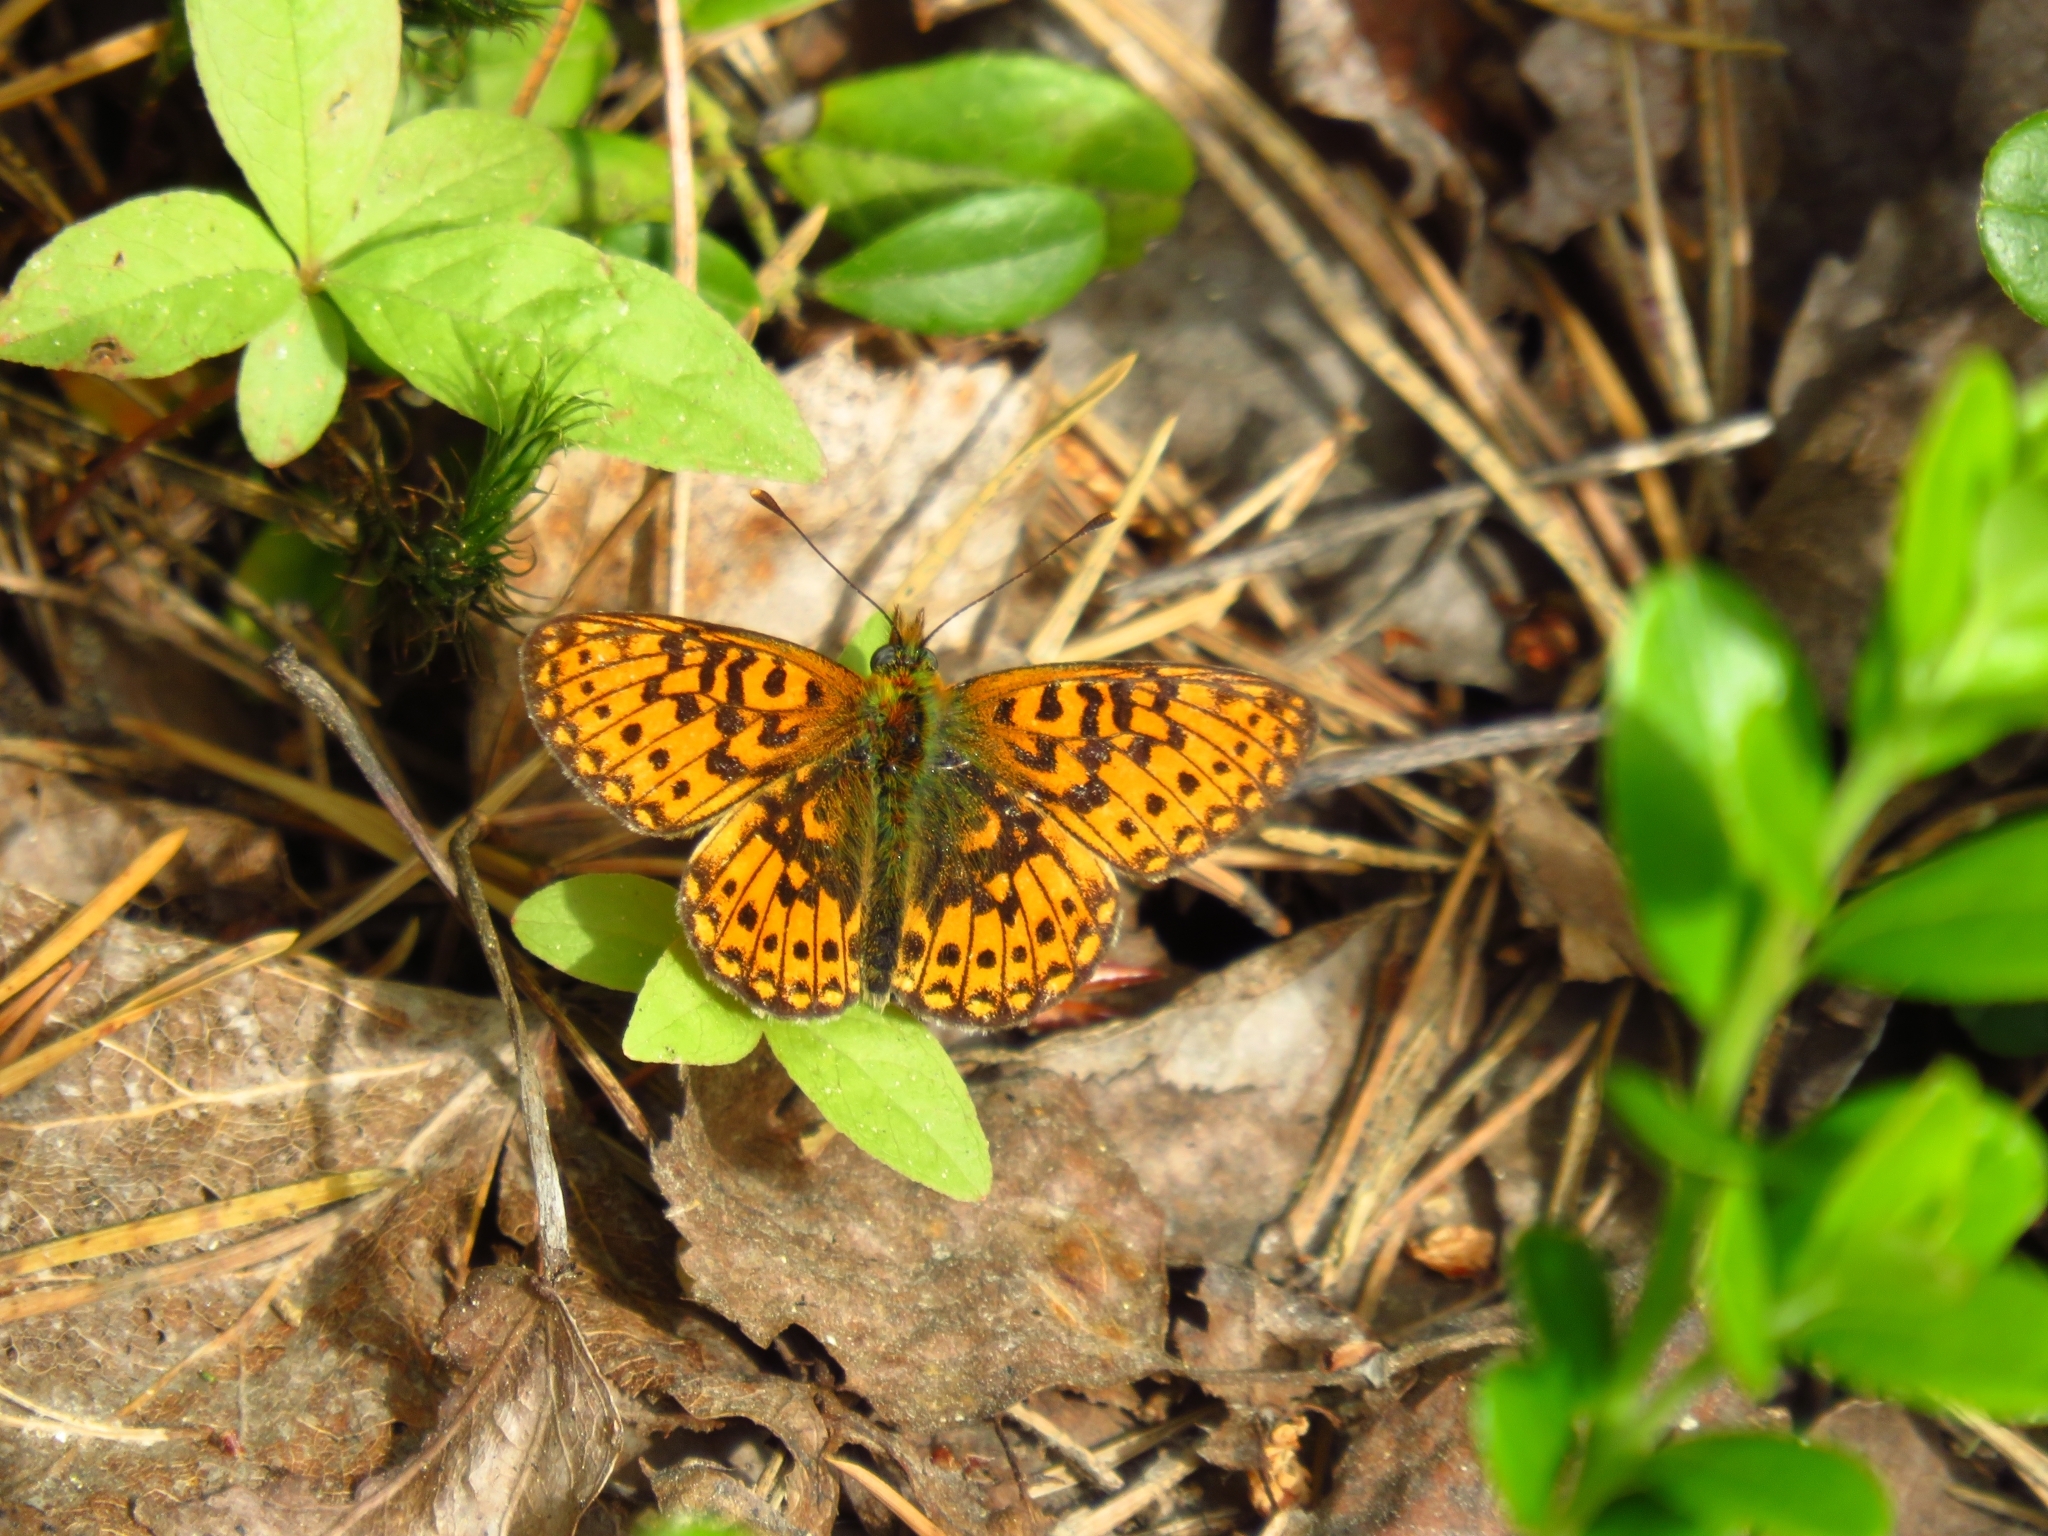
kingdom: Animalia
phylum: Arthropoda
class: Insecta
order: Lepidoptera
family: Nymphalidae
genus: Clossiana
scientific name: Clossiana euphrosyne
